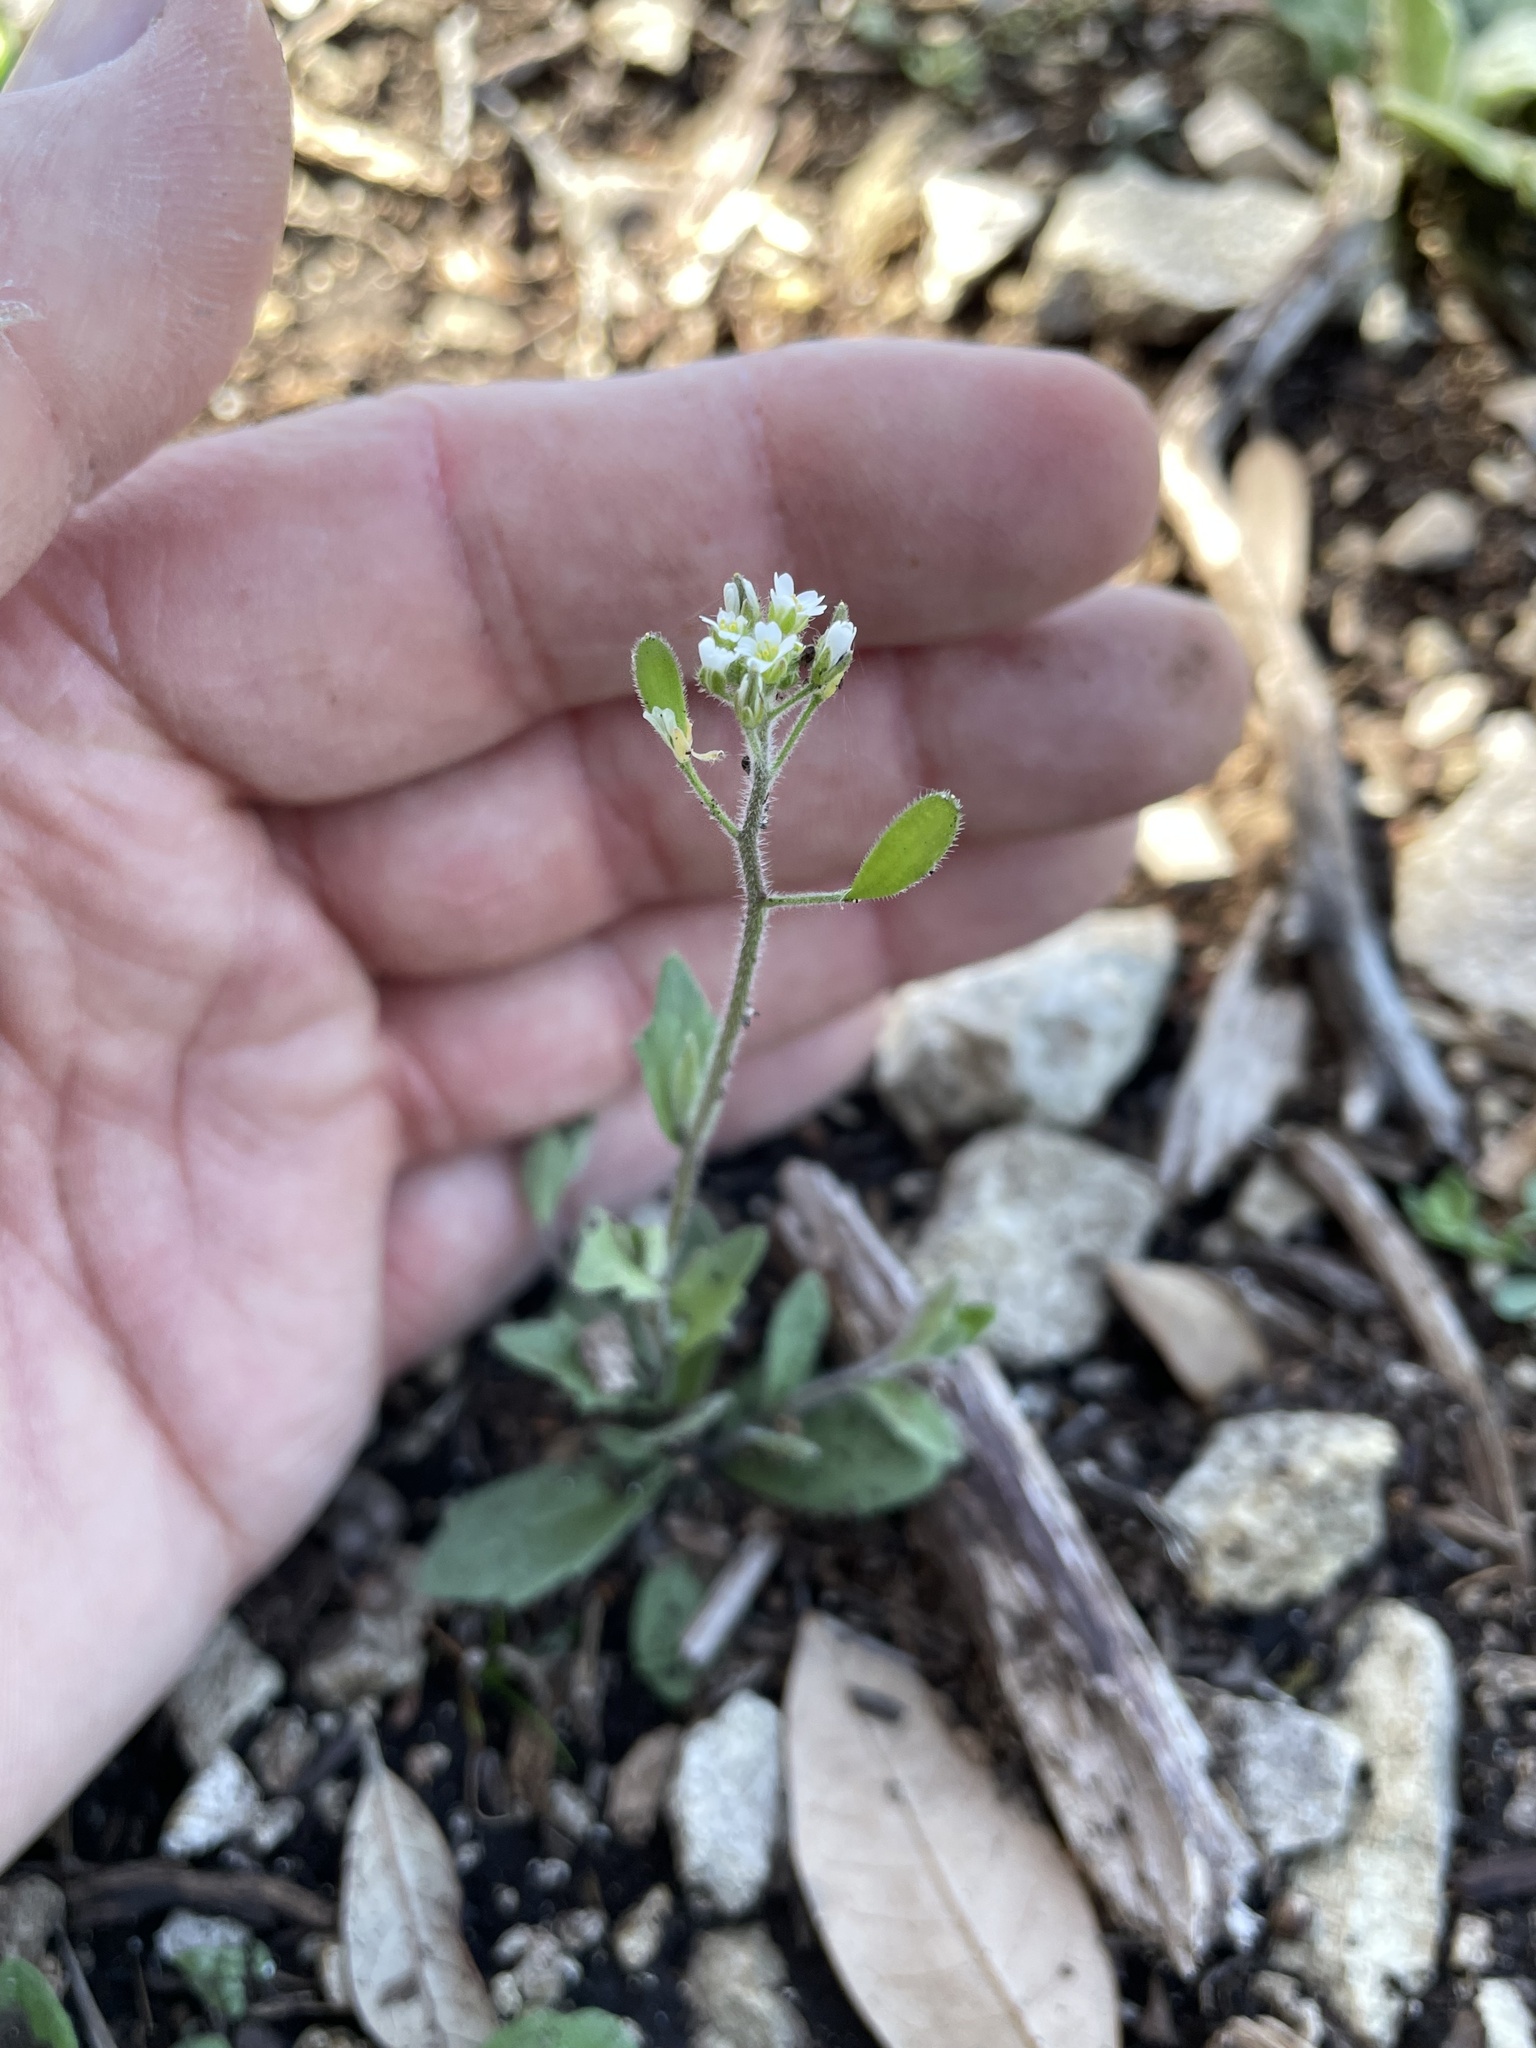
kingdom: Plantae
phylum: Tracheophyta
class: Magnoliopsida
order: Brassicales
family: Brassicaceae
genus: Tomostima
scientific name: Tomostima platycarpa
